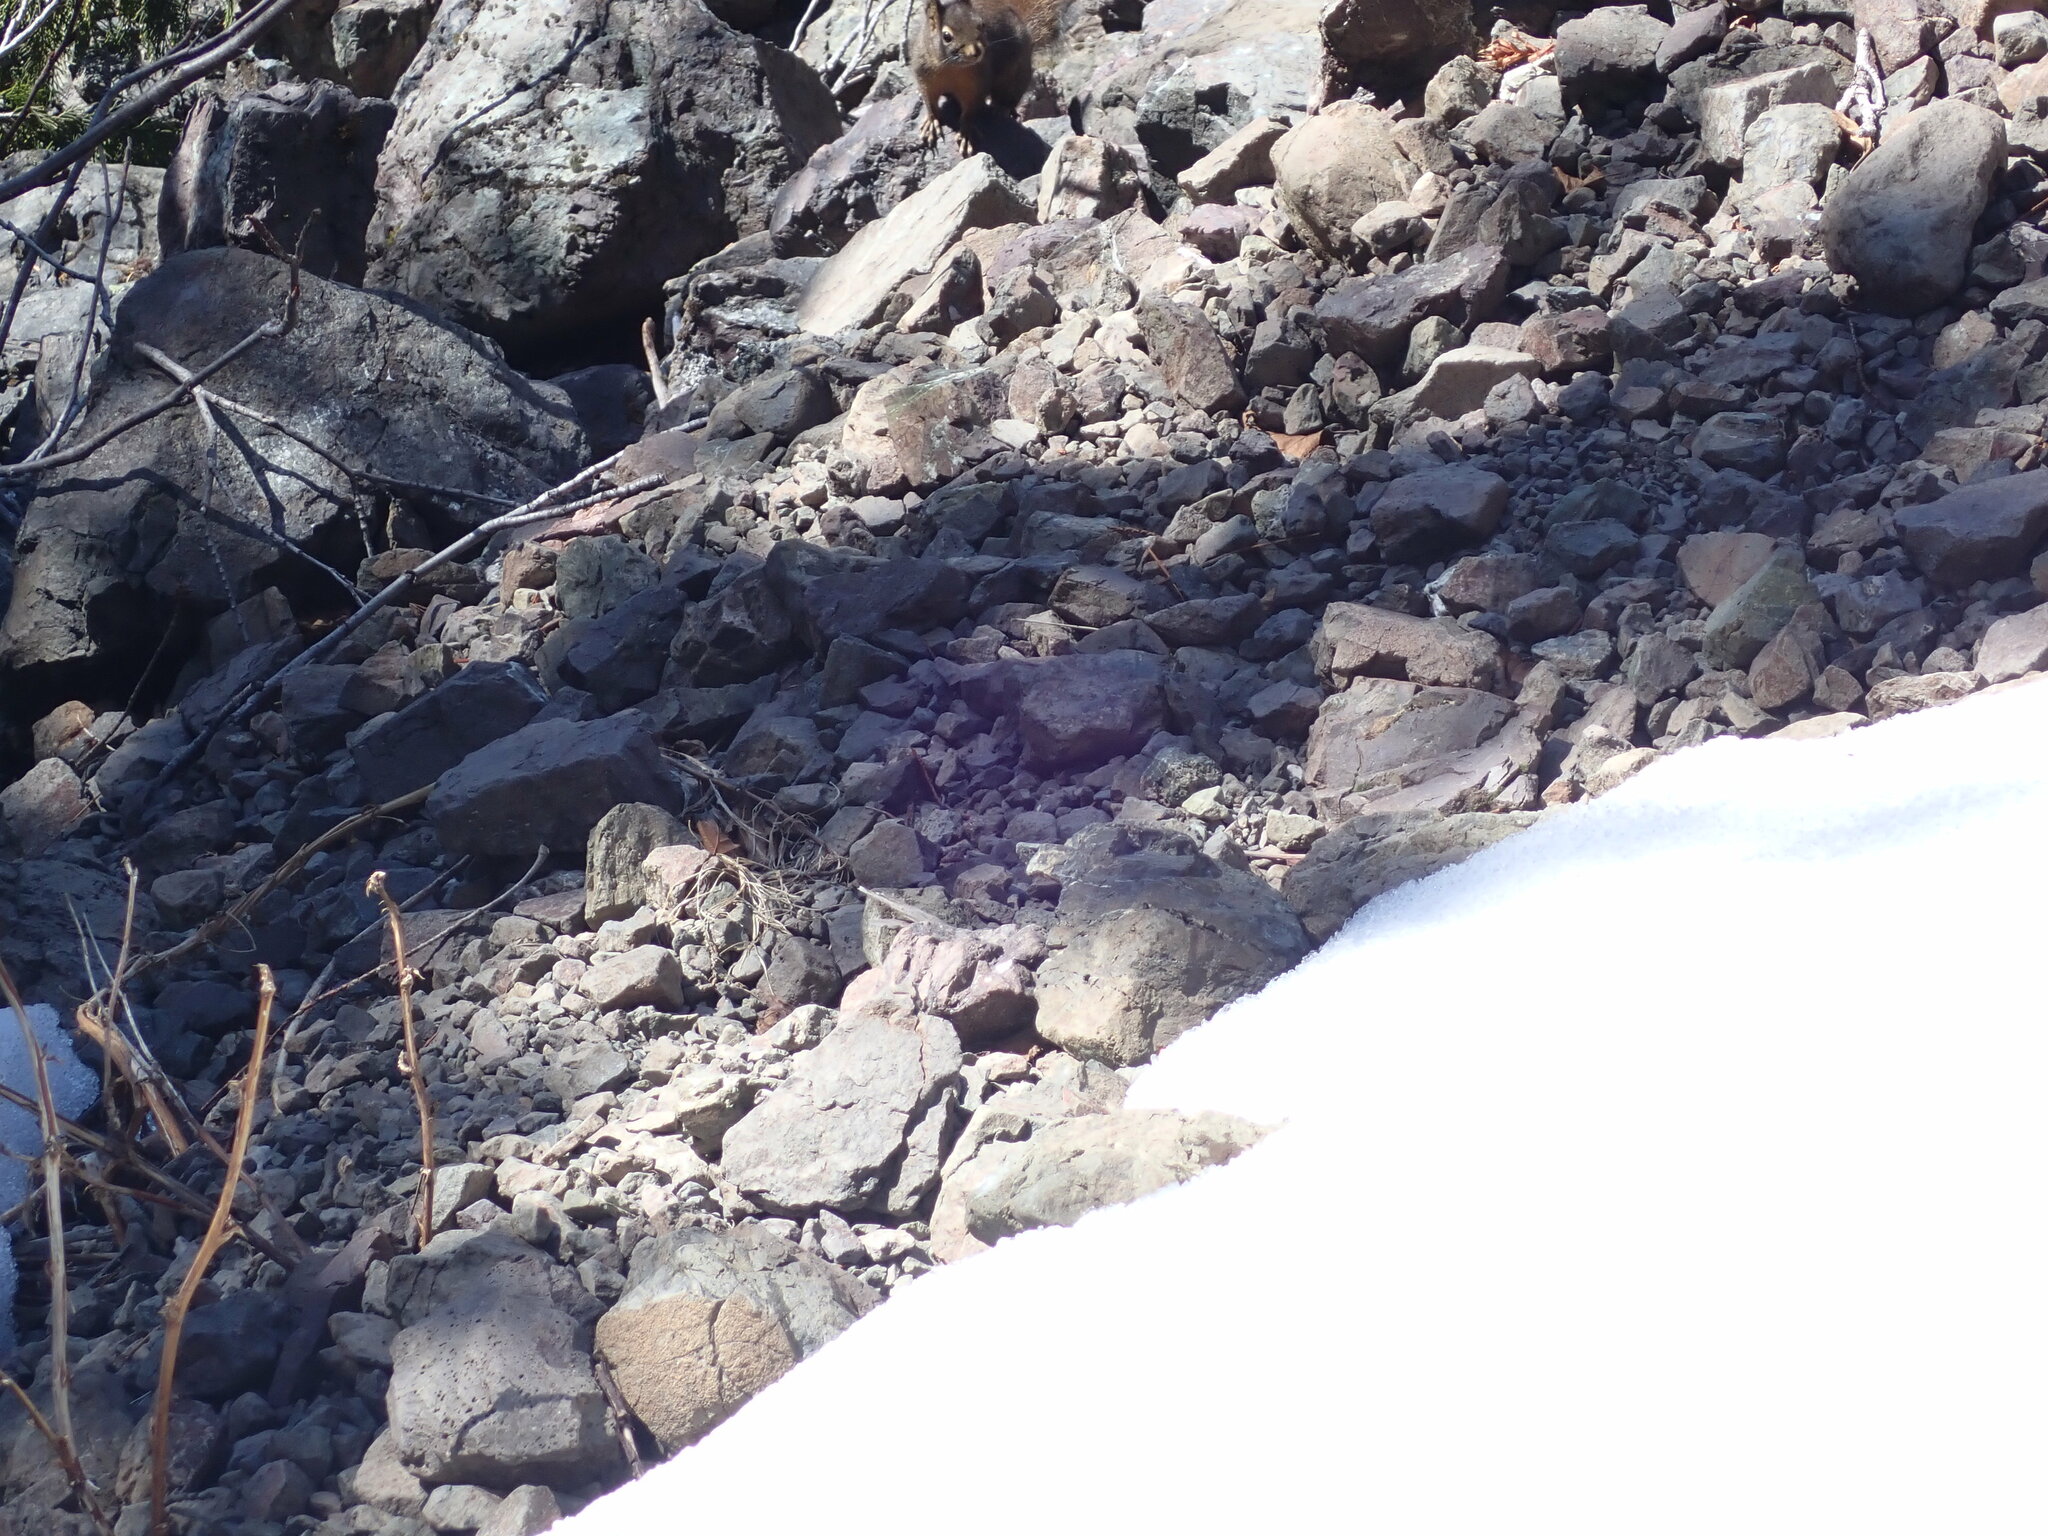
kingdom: Animalia
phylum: Chordata
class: Mammalia
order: Rodentia
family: Sciuridae
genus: Tamiasciurus
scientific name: Tamiasciurus douglasii
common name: Douglas's squirrel
